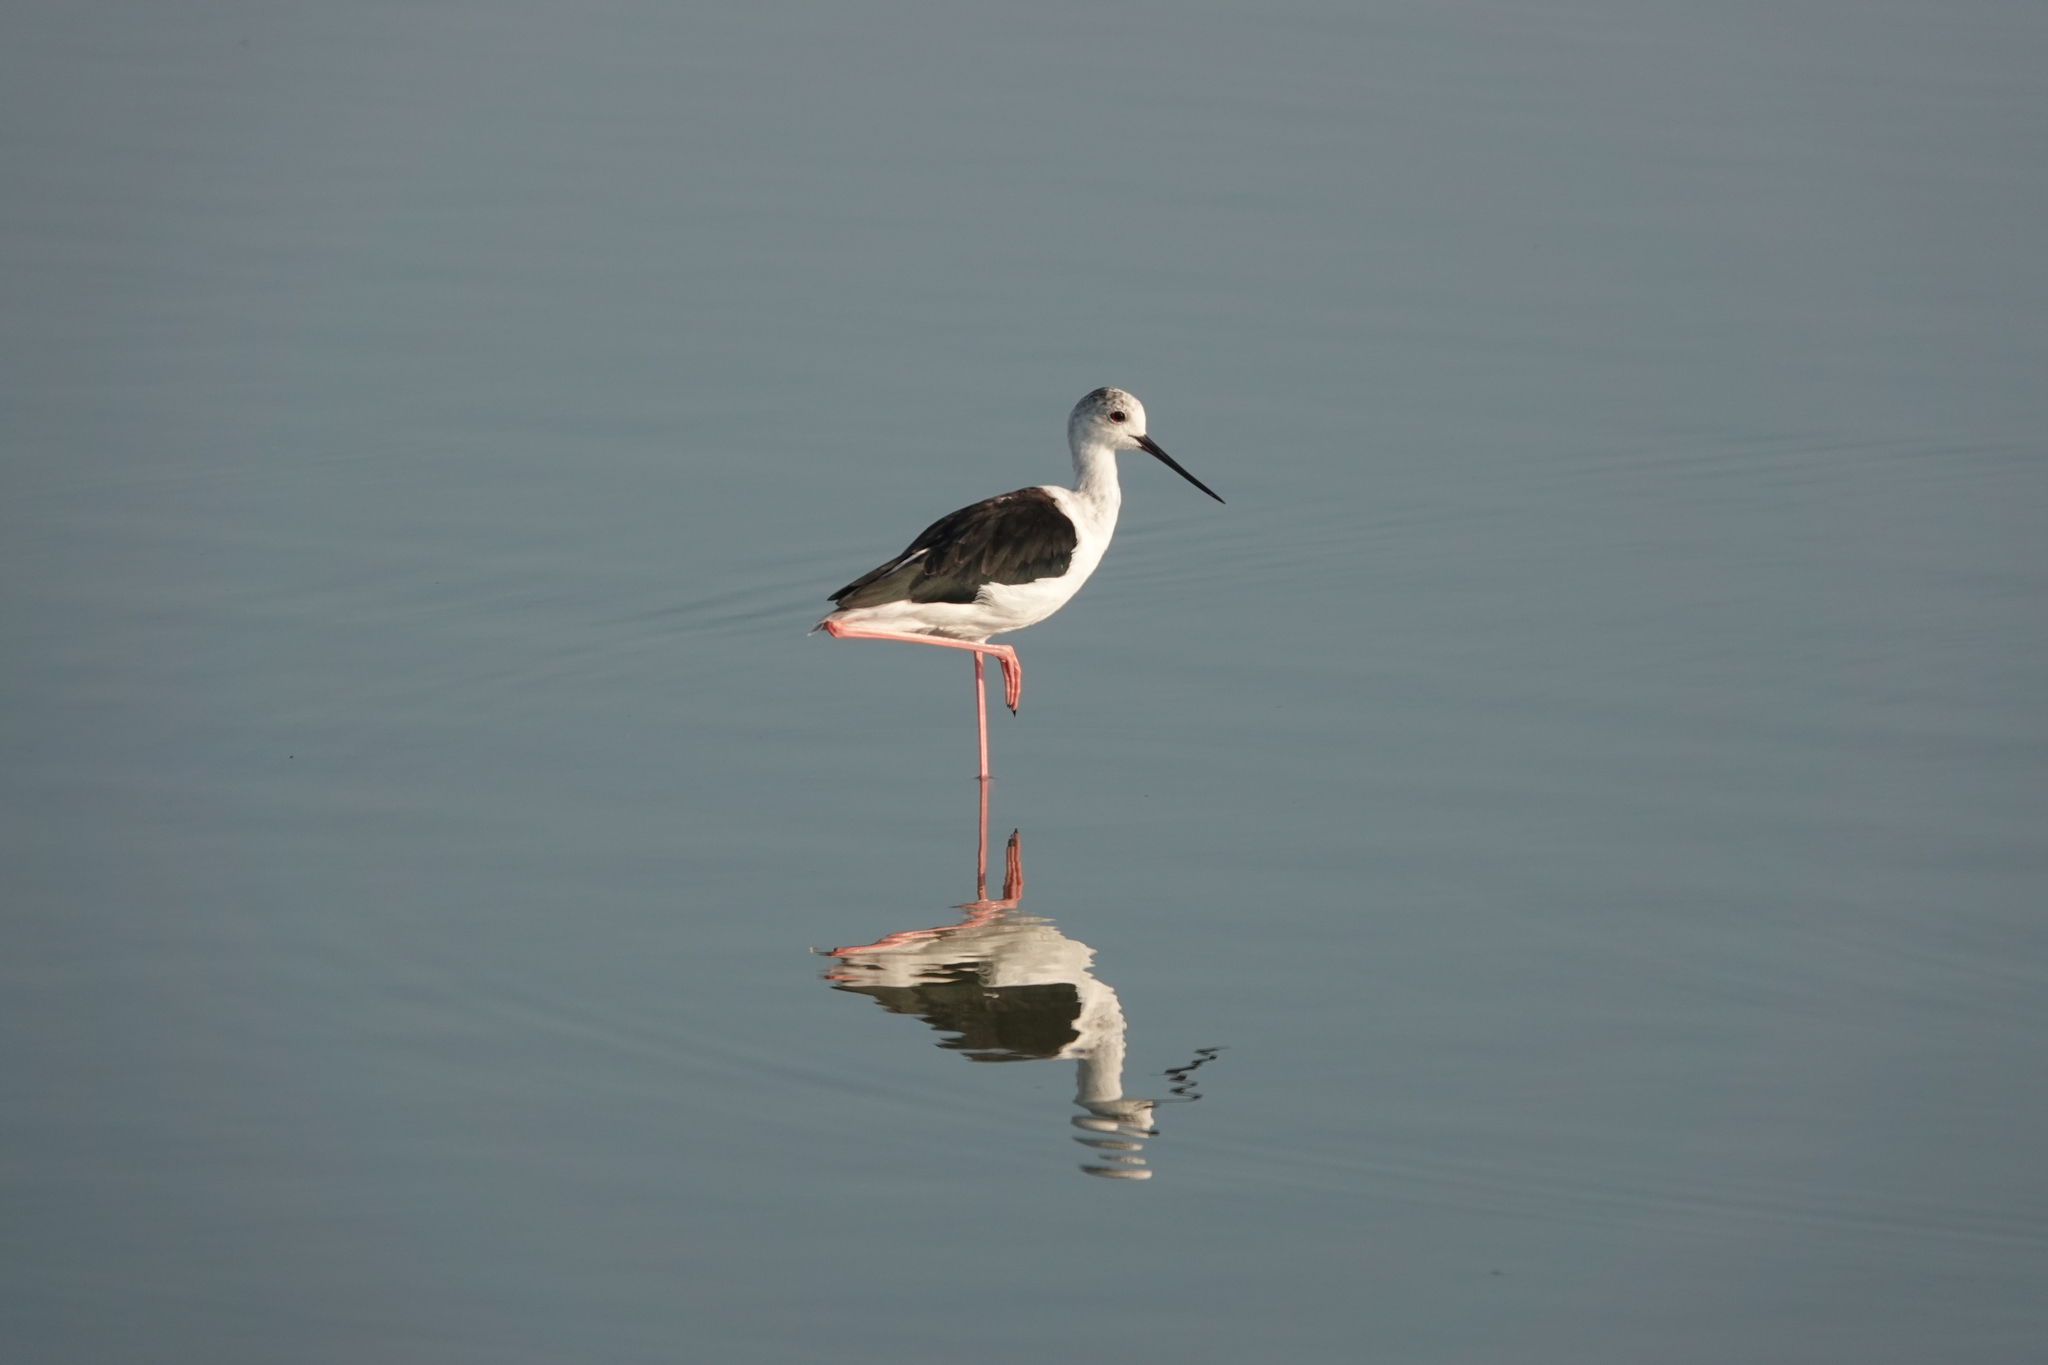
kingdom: Animalia
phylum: Chordata
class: Aves
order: Charadriiformes
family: Recurvirostridae
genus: Himantopus
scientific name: Himantopus himantopus
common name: Black-winged stilt
